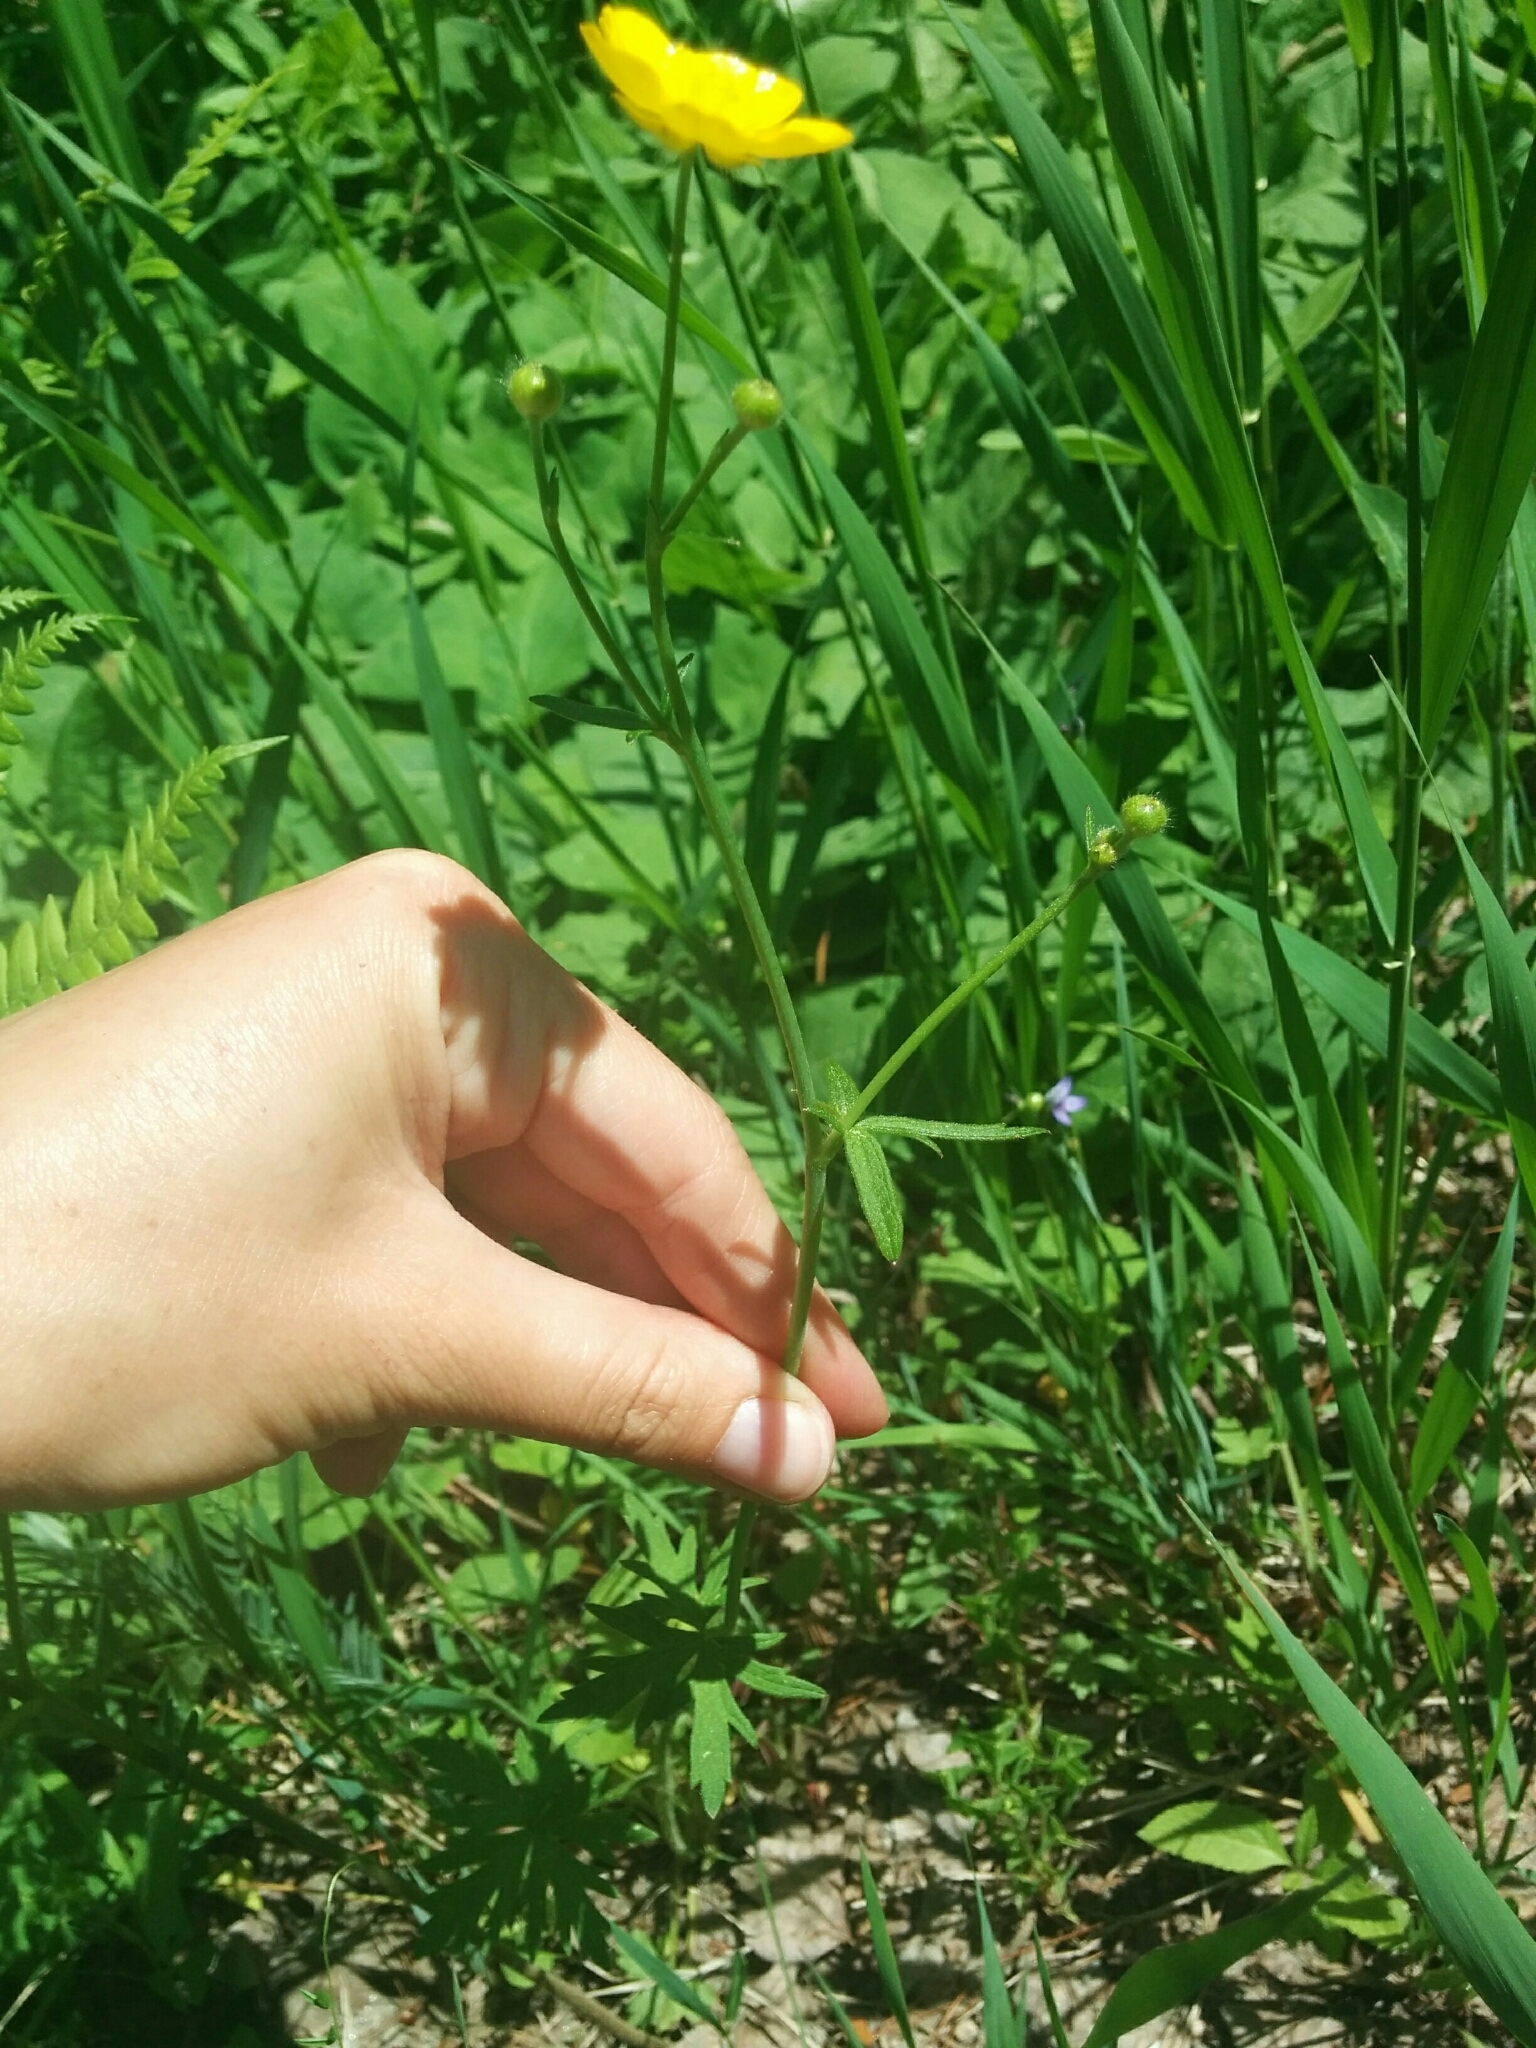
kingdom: Plantae
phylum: Tracheophyta
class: Magnoliopsida
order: Ranunculales
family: Ranunculaceae
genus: Ranunculus
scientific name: Ranunculus acris
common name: Meadow buttercup
